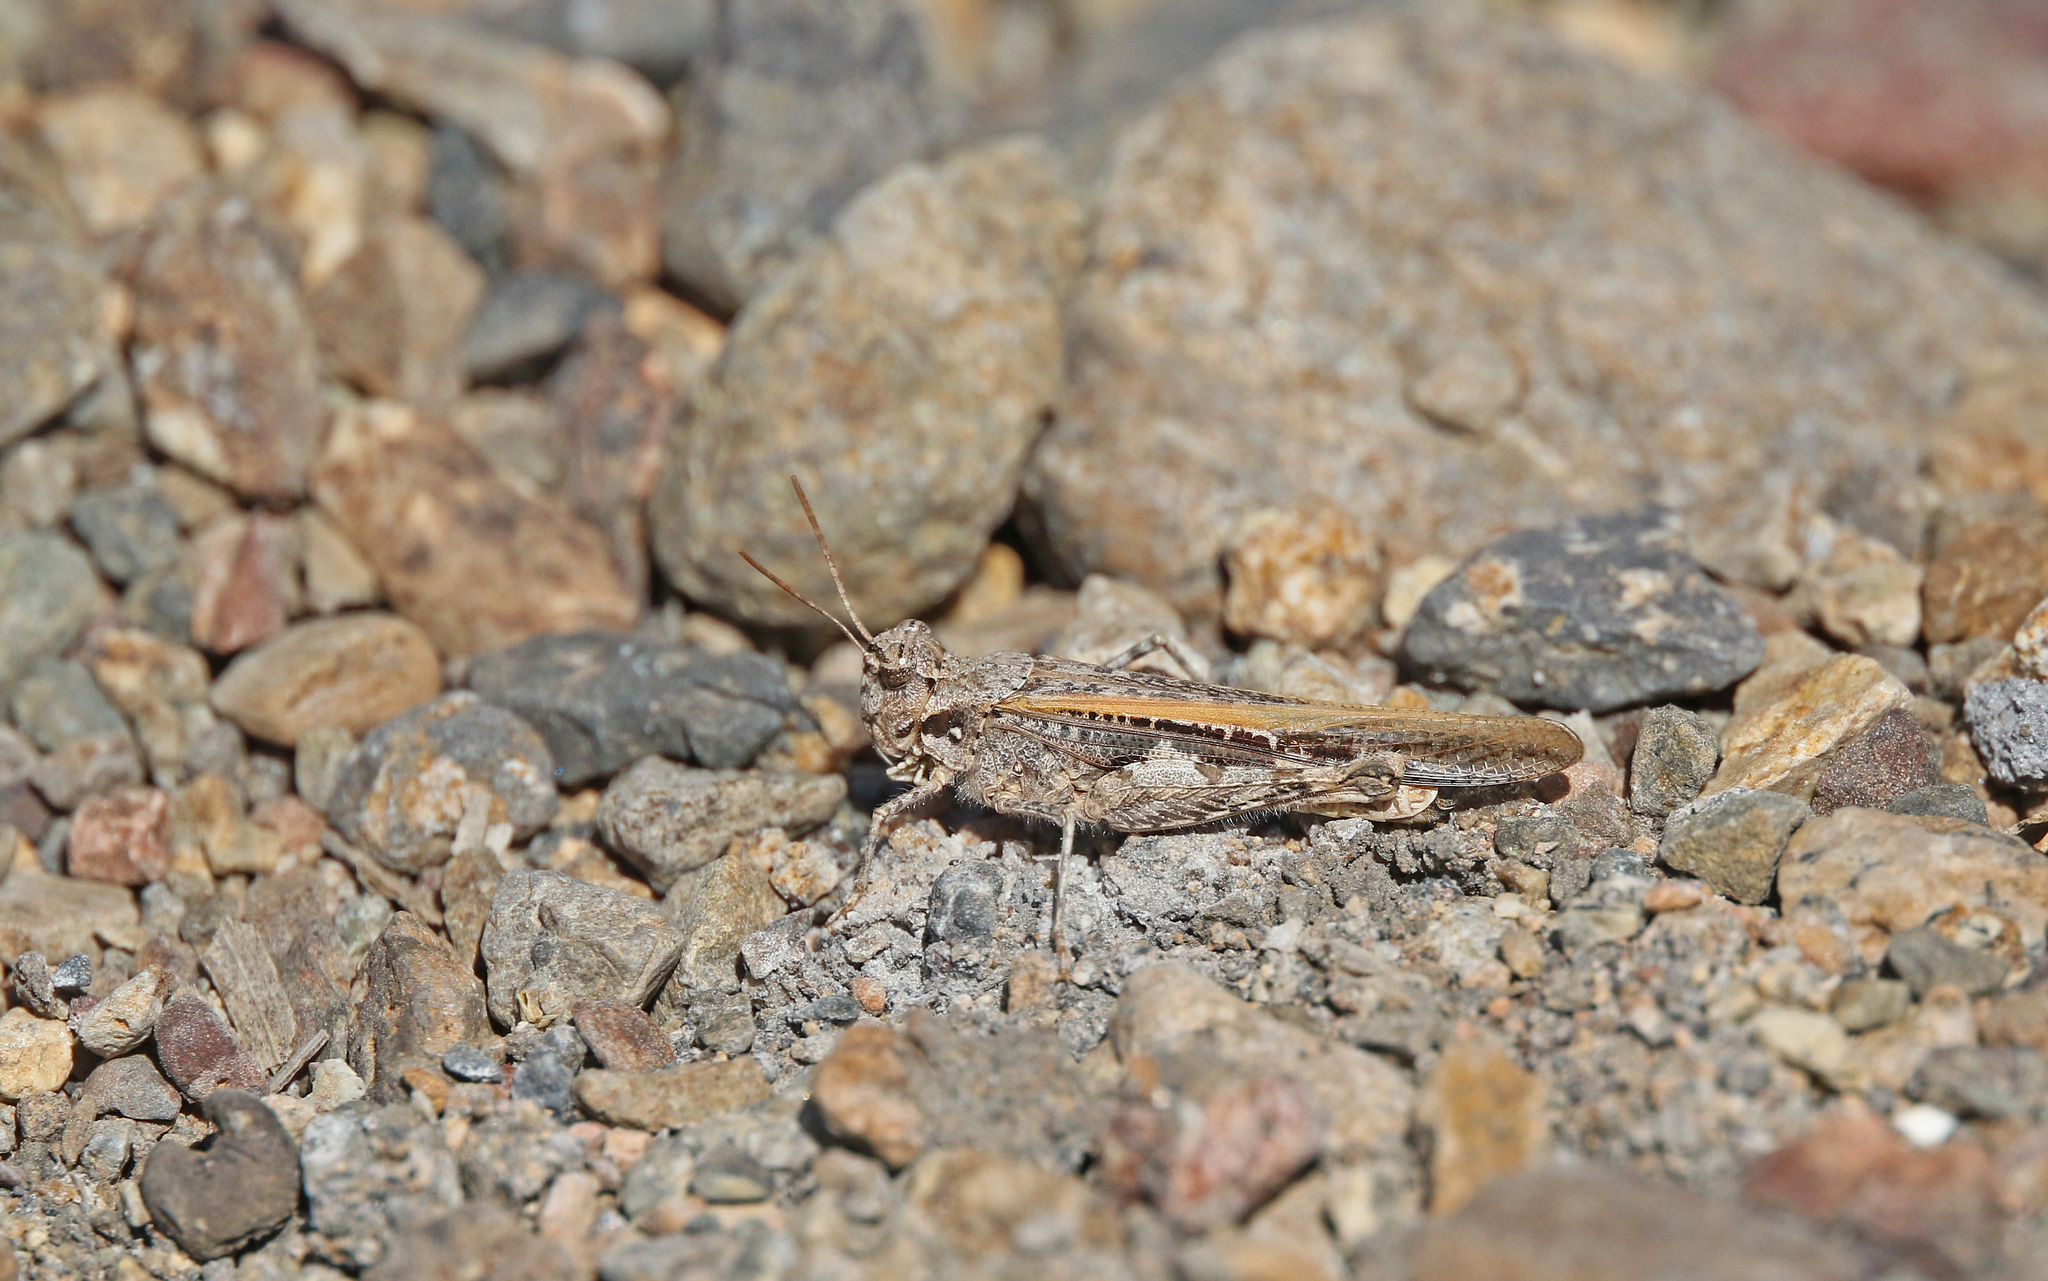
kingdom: Animalia
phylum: Arthropoda
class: Insecta
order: Orthoptera
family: Acrididae
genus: Acrotylus
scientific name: Acrotylus insubricus
